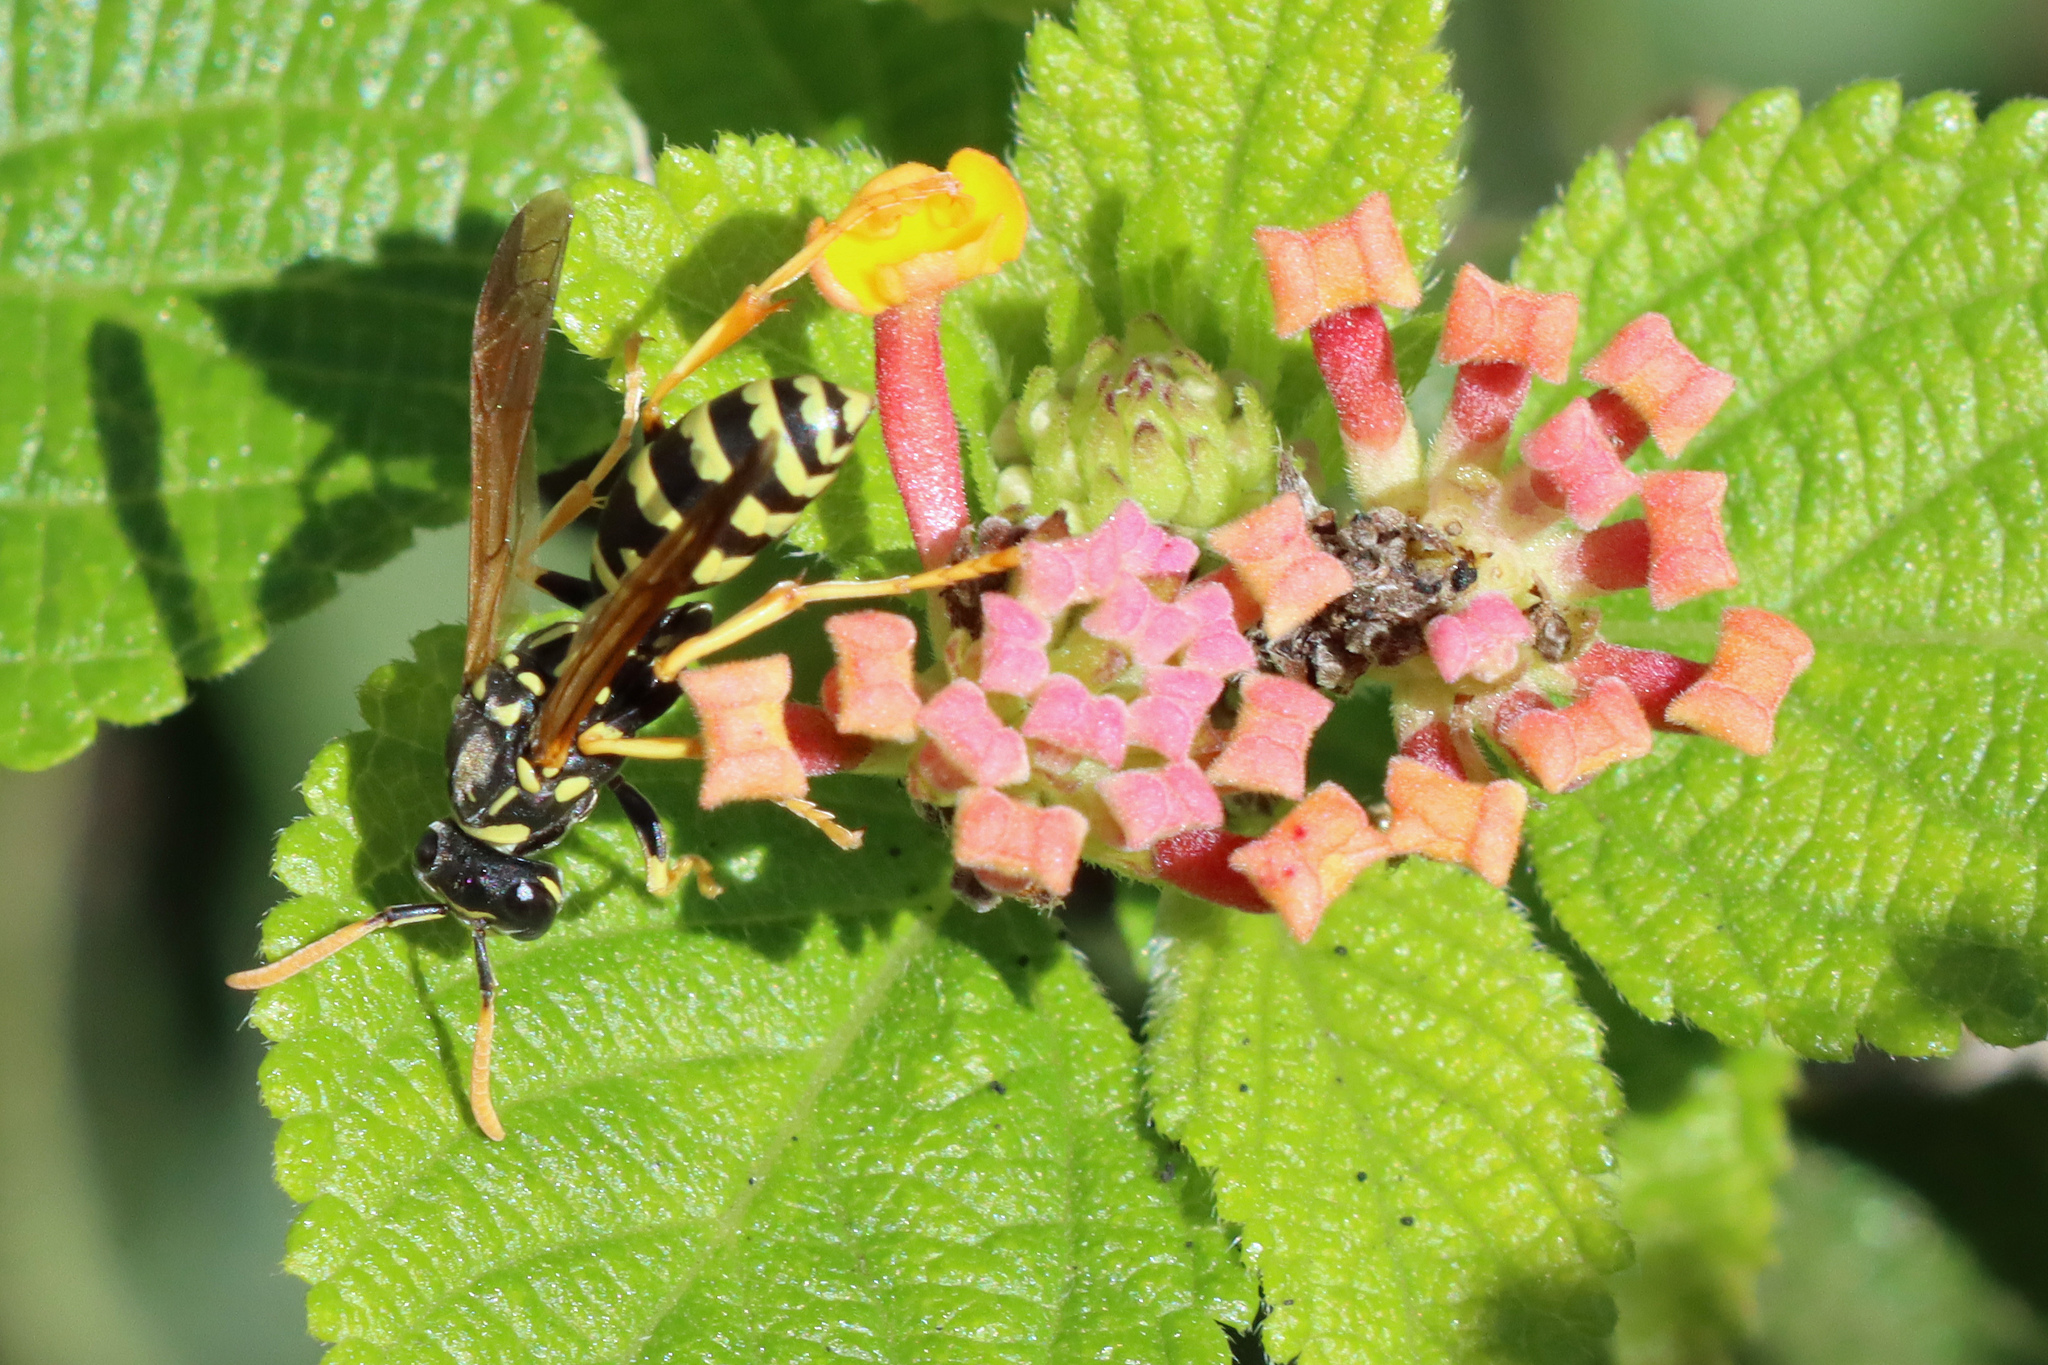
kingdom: Animalia
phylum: Arthropoda
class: Insecta
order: Hymenoptera
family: Eumenidae
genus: Polistes
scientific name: Polistes
